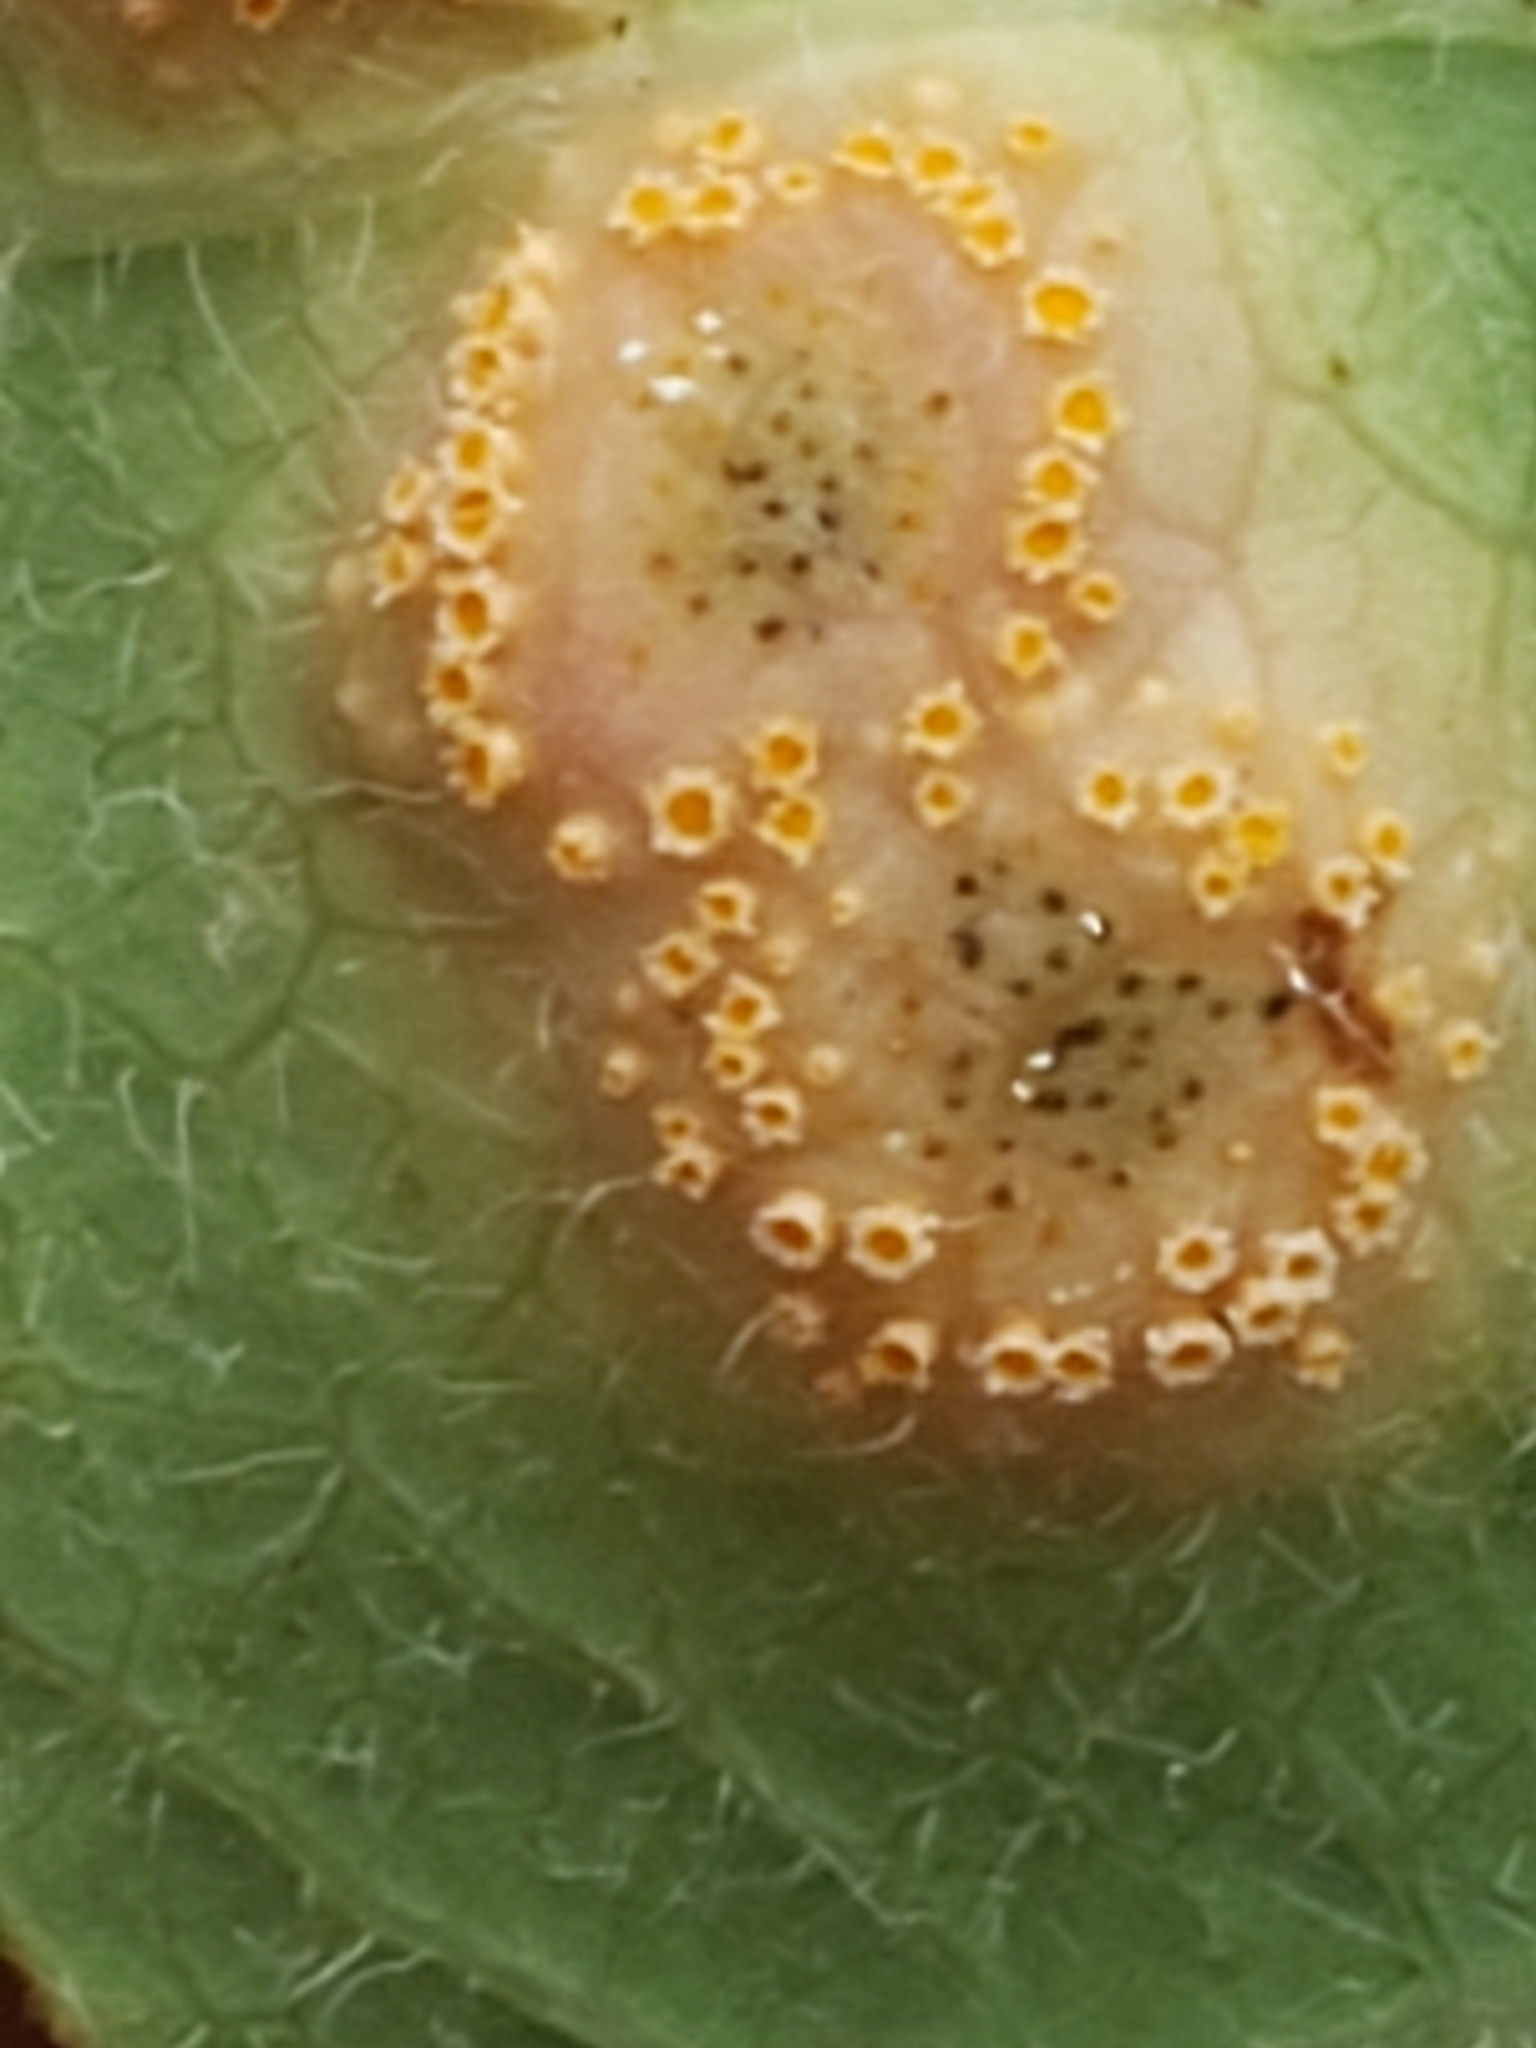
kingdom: Fungi
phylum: Basidiomycota
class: Pucciniomycetes
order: Pucciniales
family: Pucciniaceae
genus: Puccinia
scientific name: Puccinia smilacis
